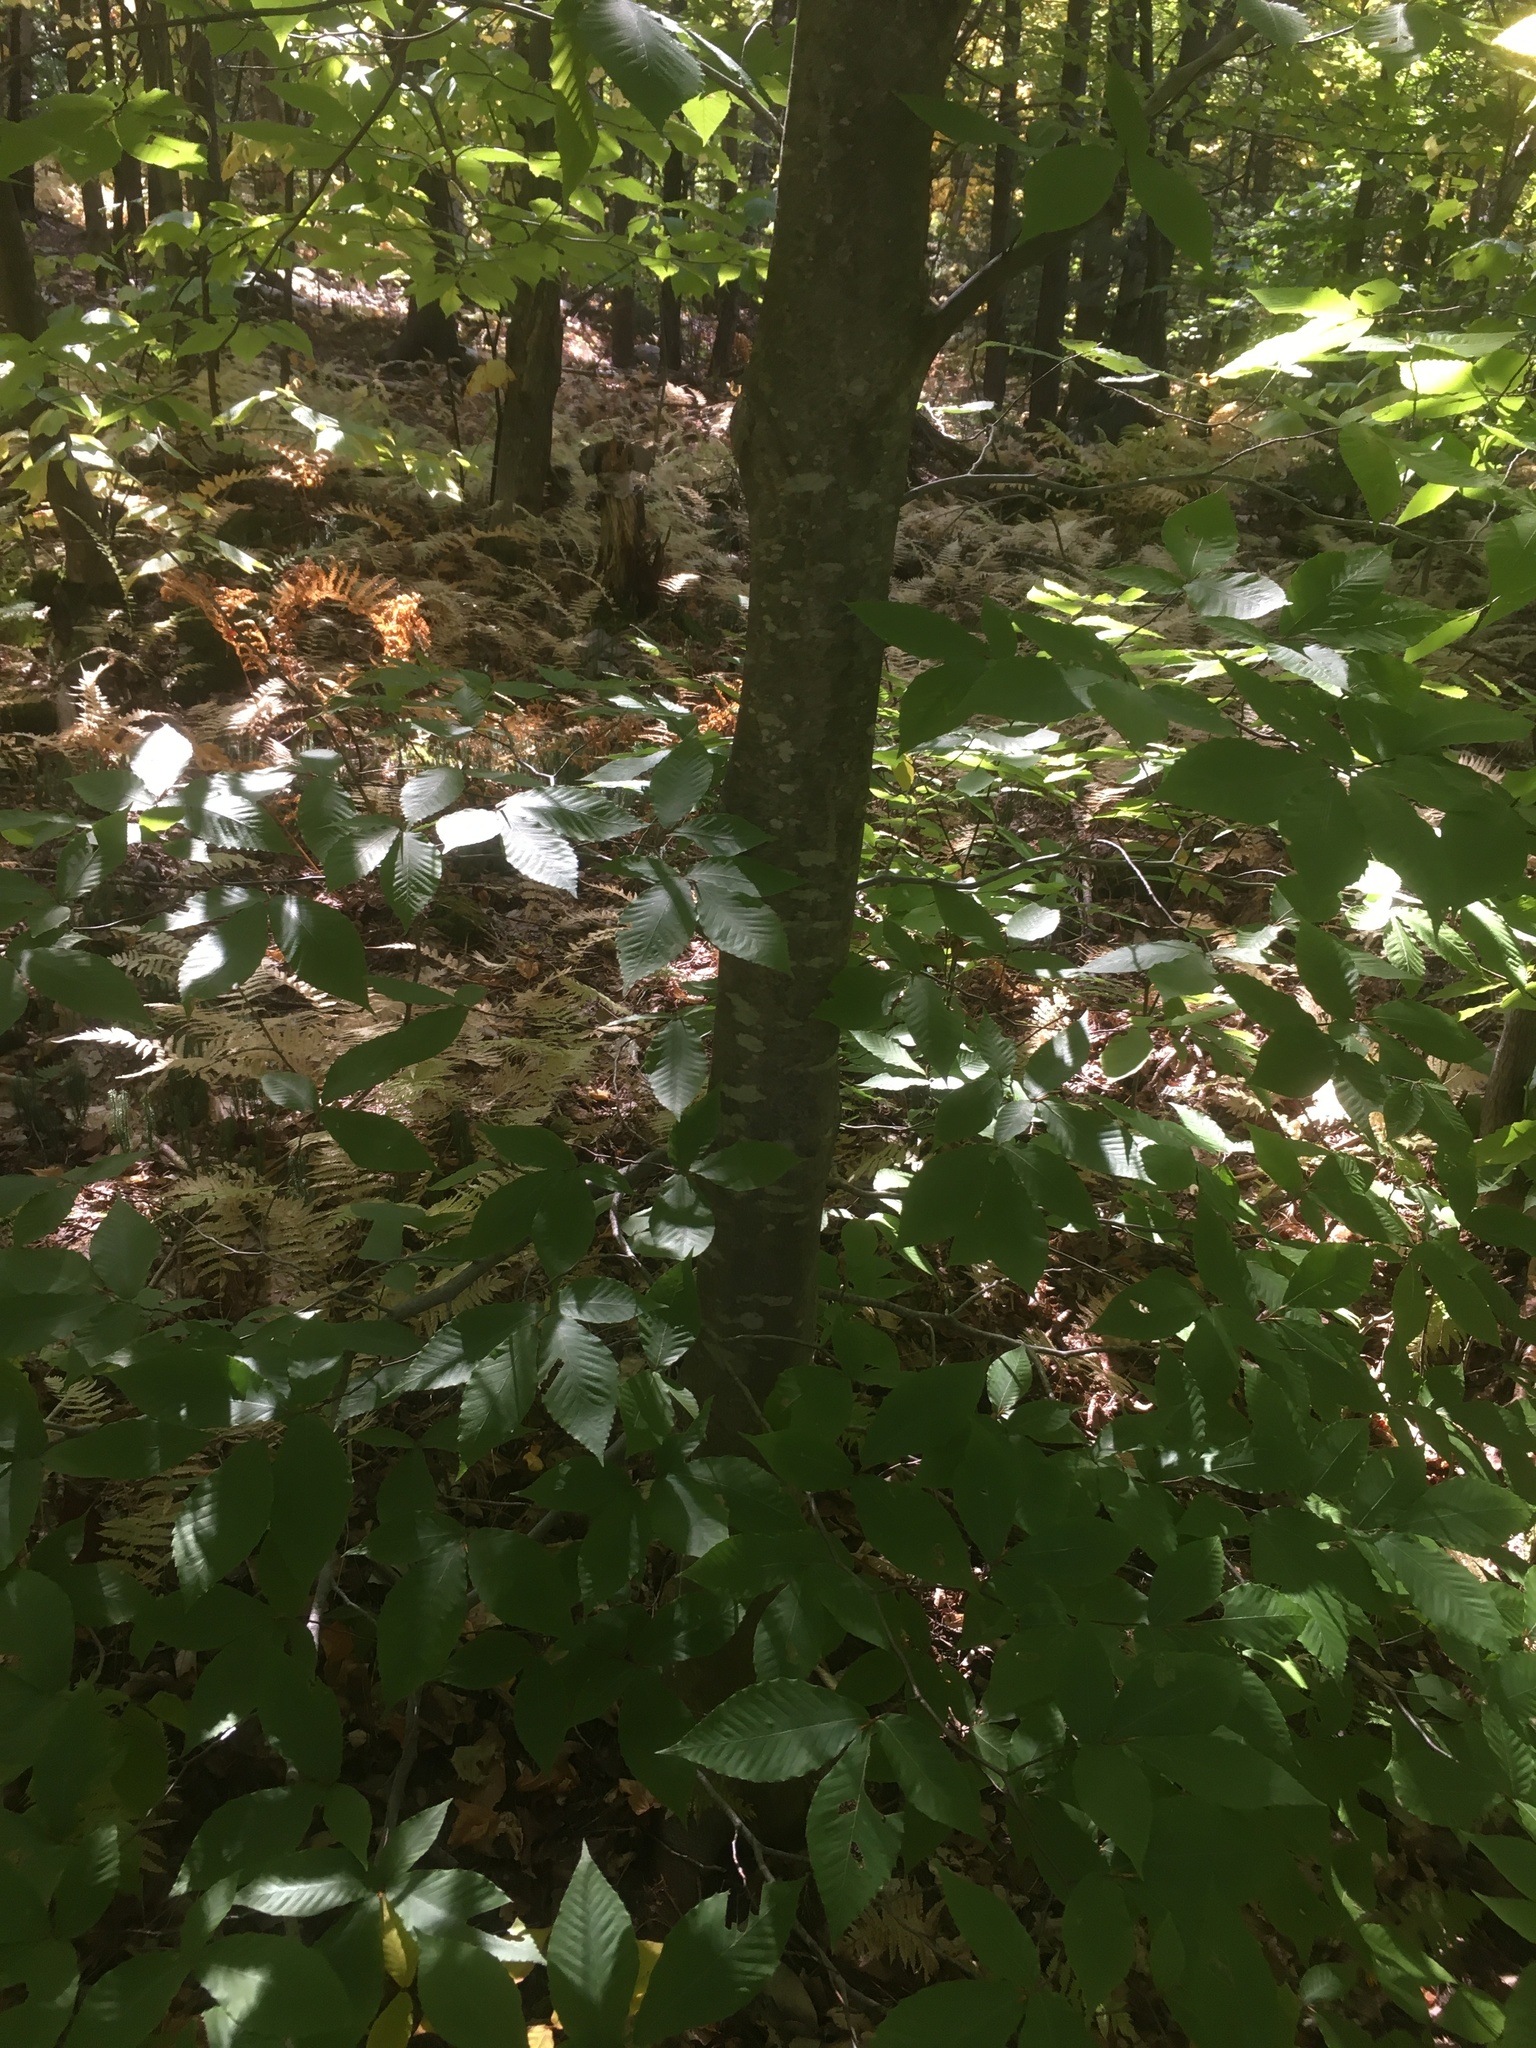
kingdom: Plantae
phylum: Tracheophyta
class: Magnoliopsida
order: Fagales
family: Fagaceae
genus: Fagus
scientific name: Fagus grandifolia
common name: American beech
